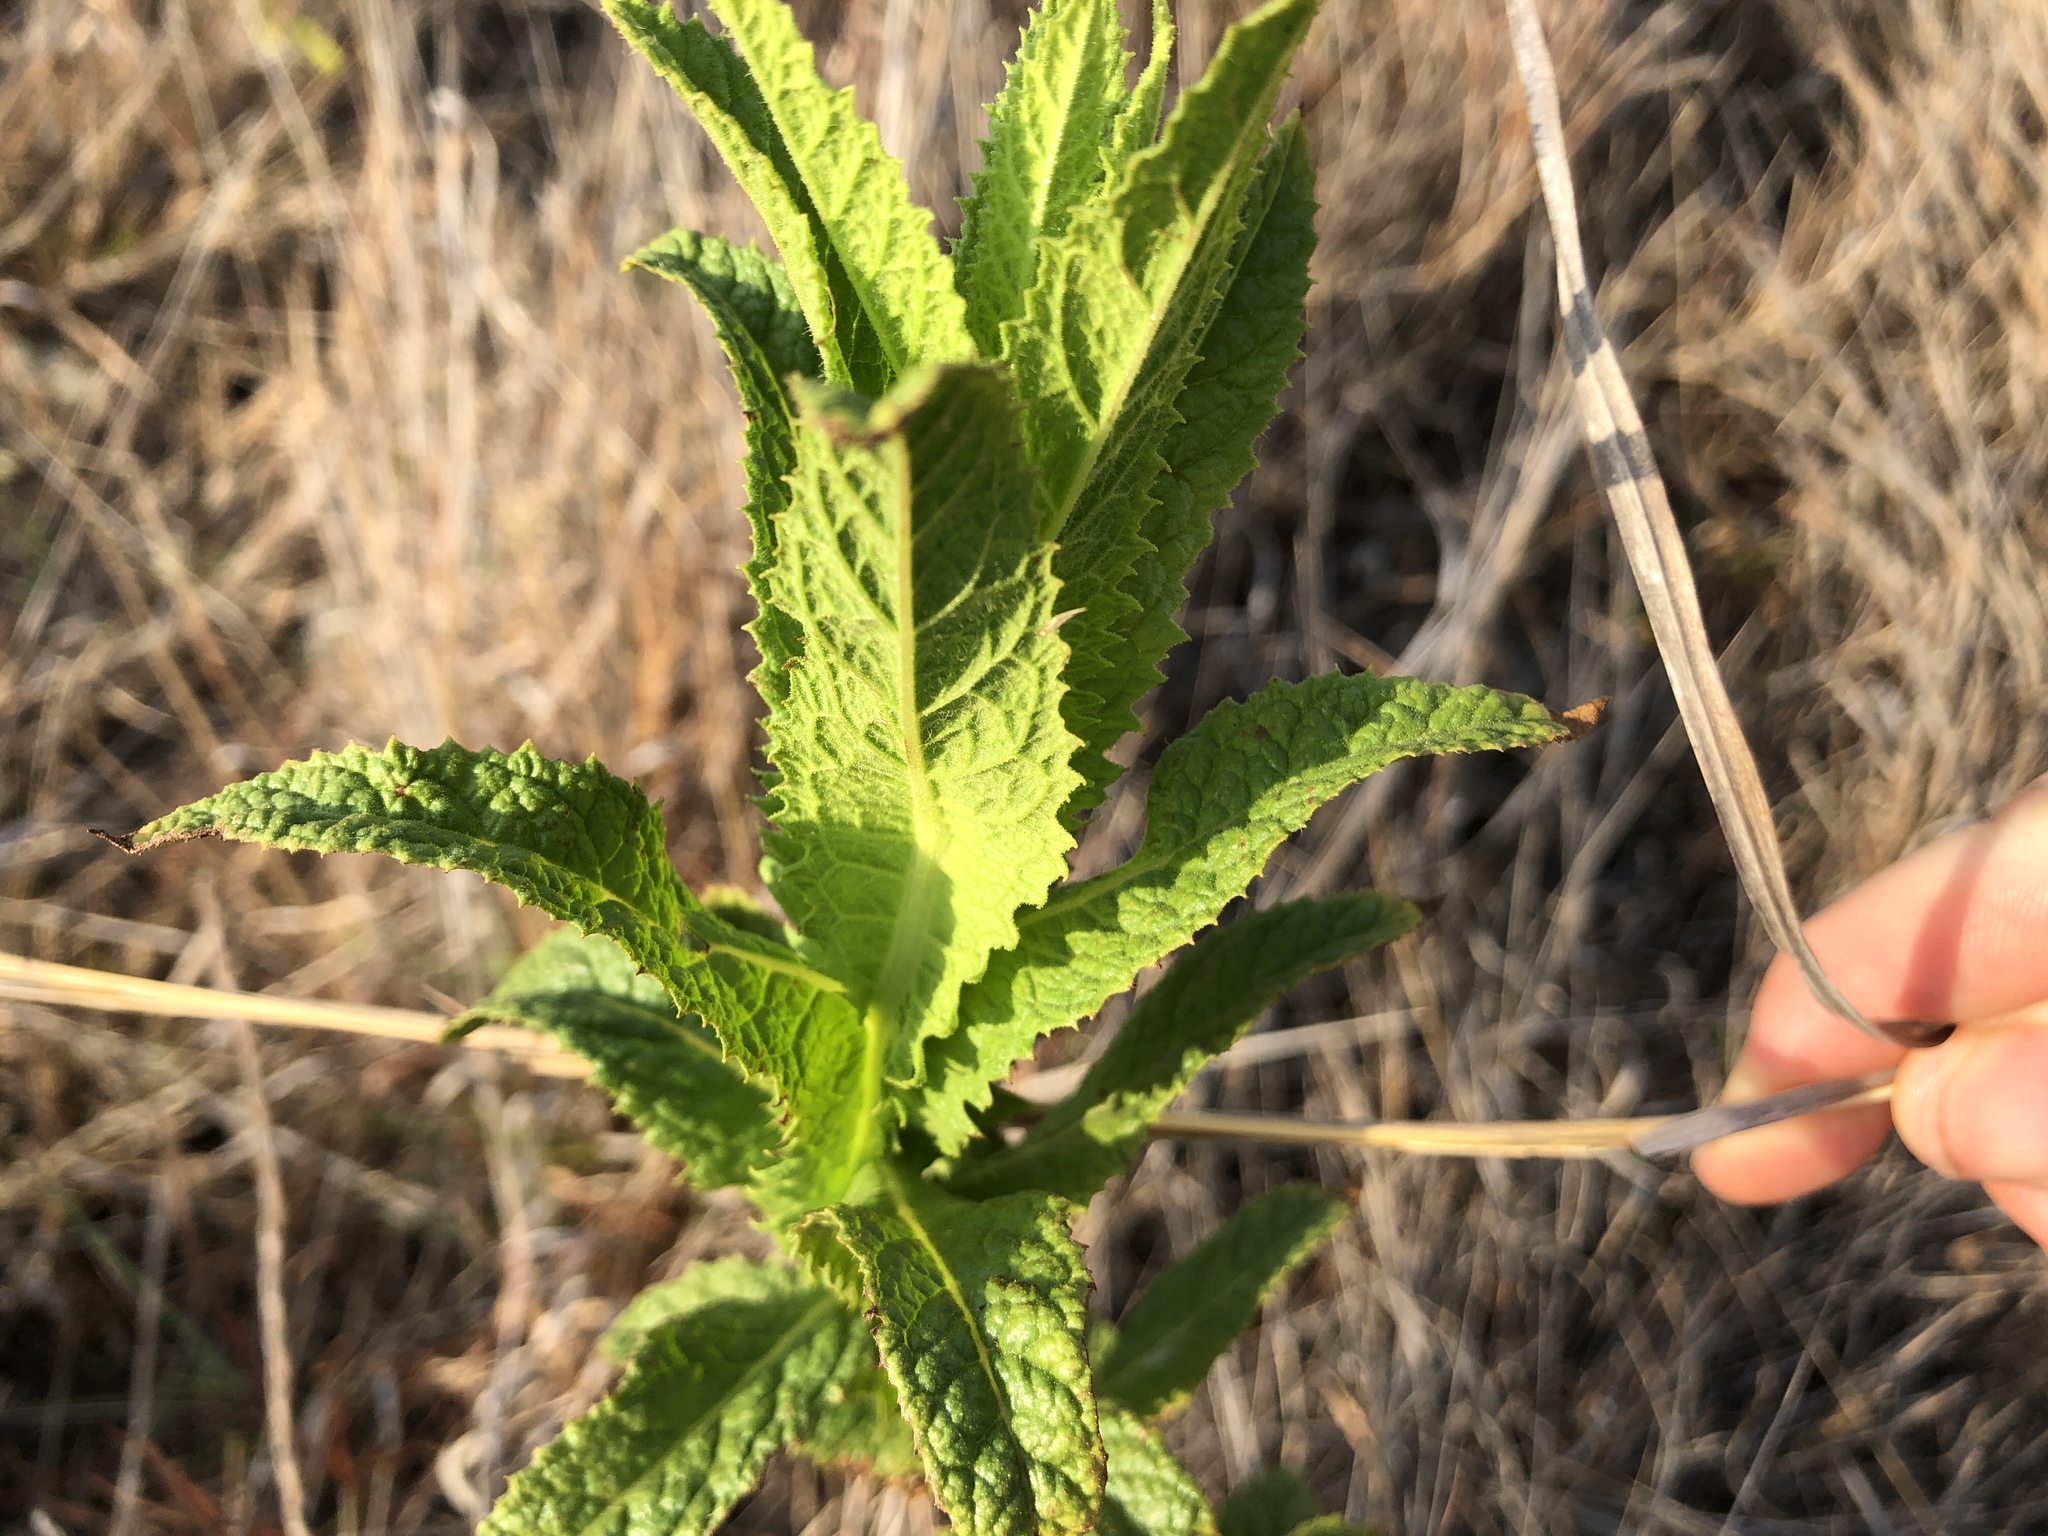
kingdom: Plantae
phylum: Tracheophyta
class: Magnoliopsida
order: Asterales
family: Asteraceae
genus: Pterocaulon
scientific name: Pterocaulon serrulatum
